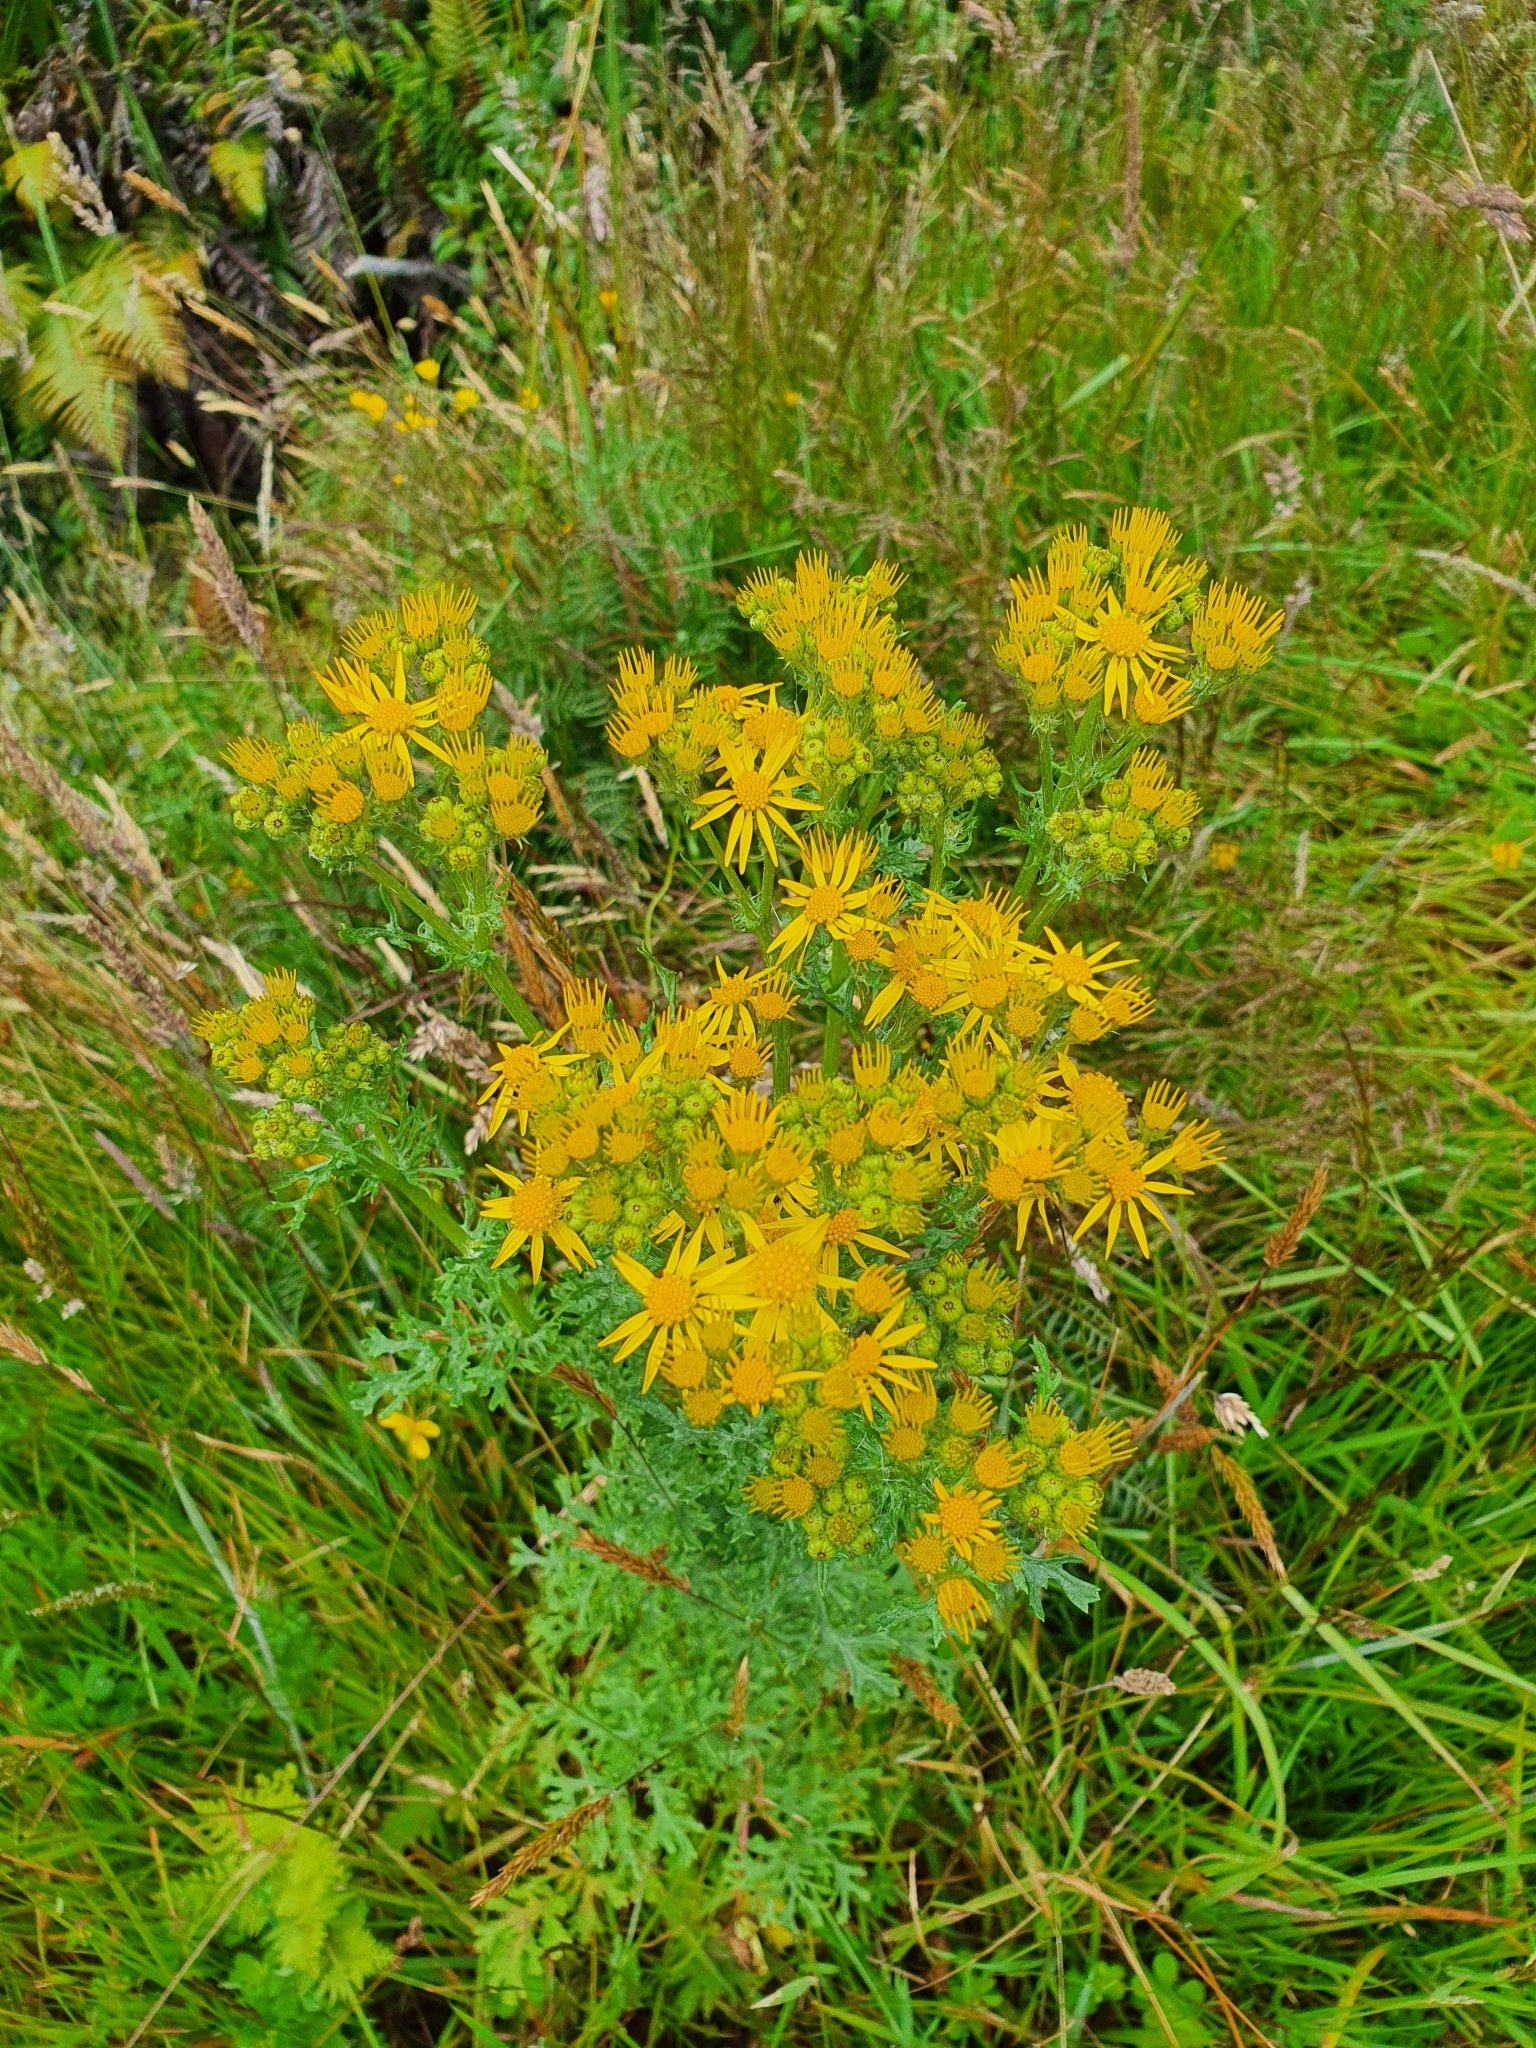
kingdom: Plantae
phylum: Tracheophyta
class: Magnoliopsida
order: Asterales
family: Asteraceae
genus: Jacobaea
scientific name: Jacobaea vulgaris
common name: Stinking willie
